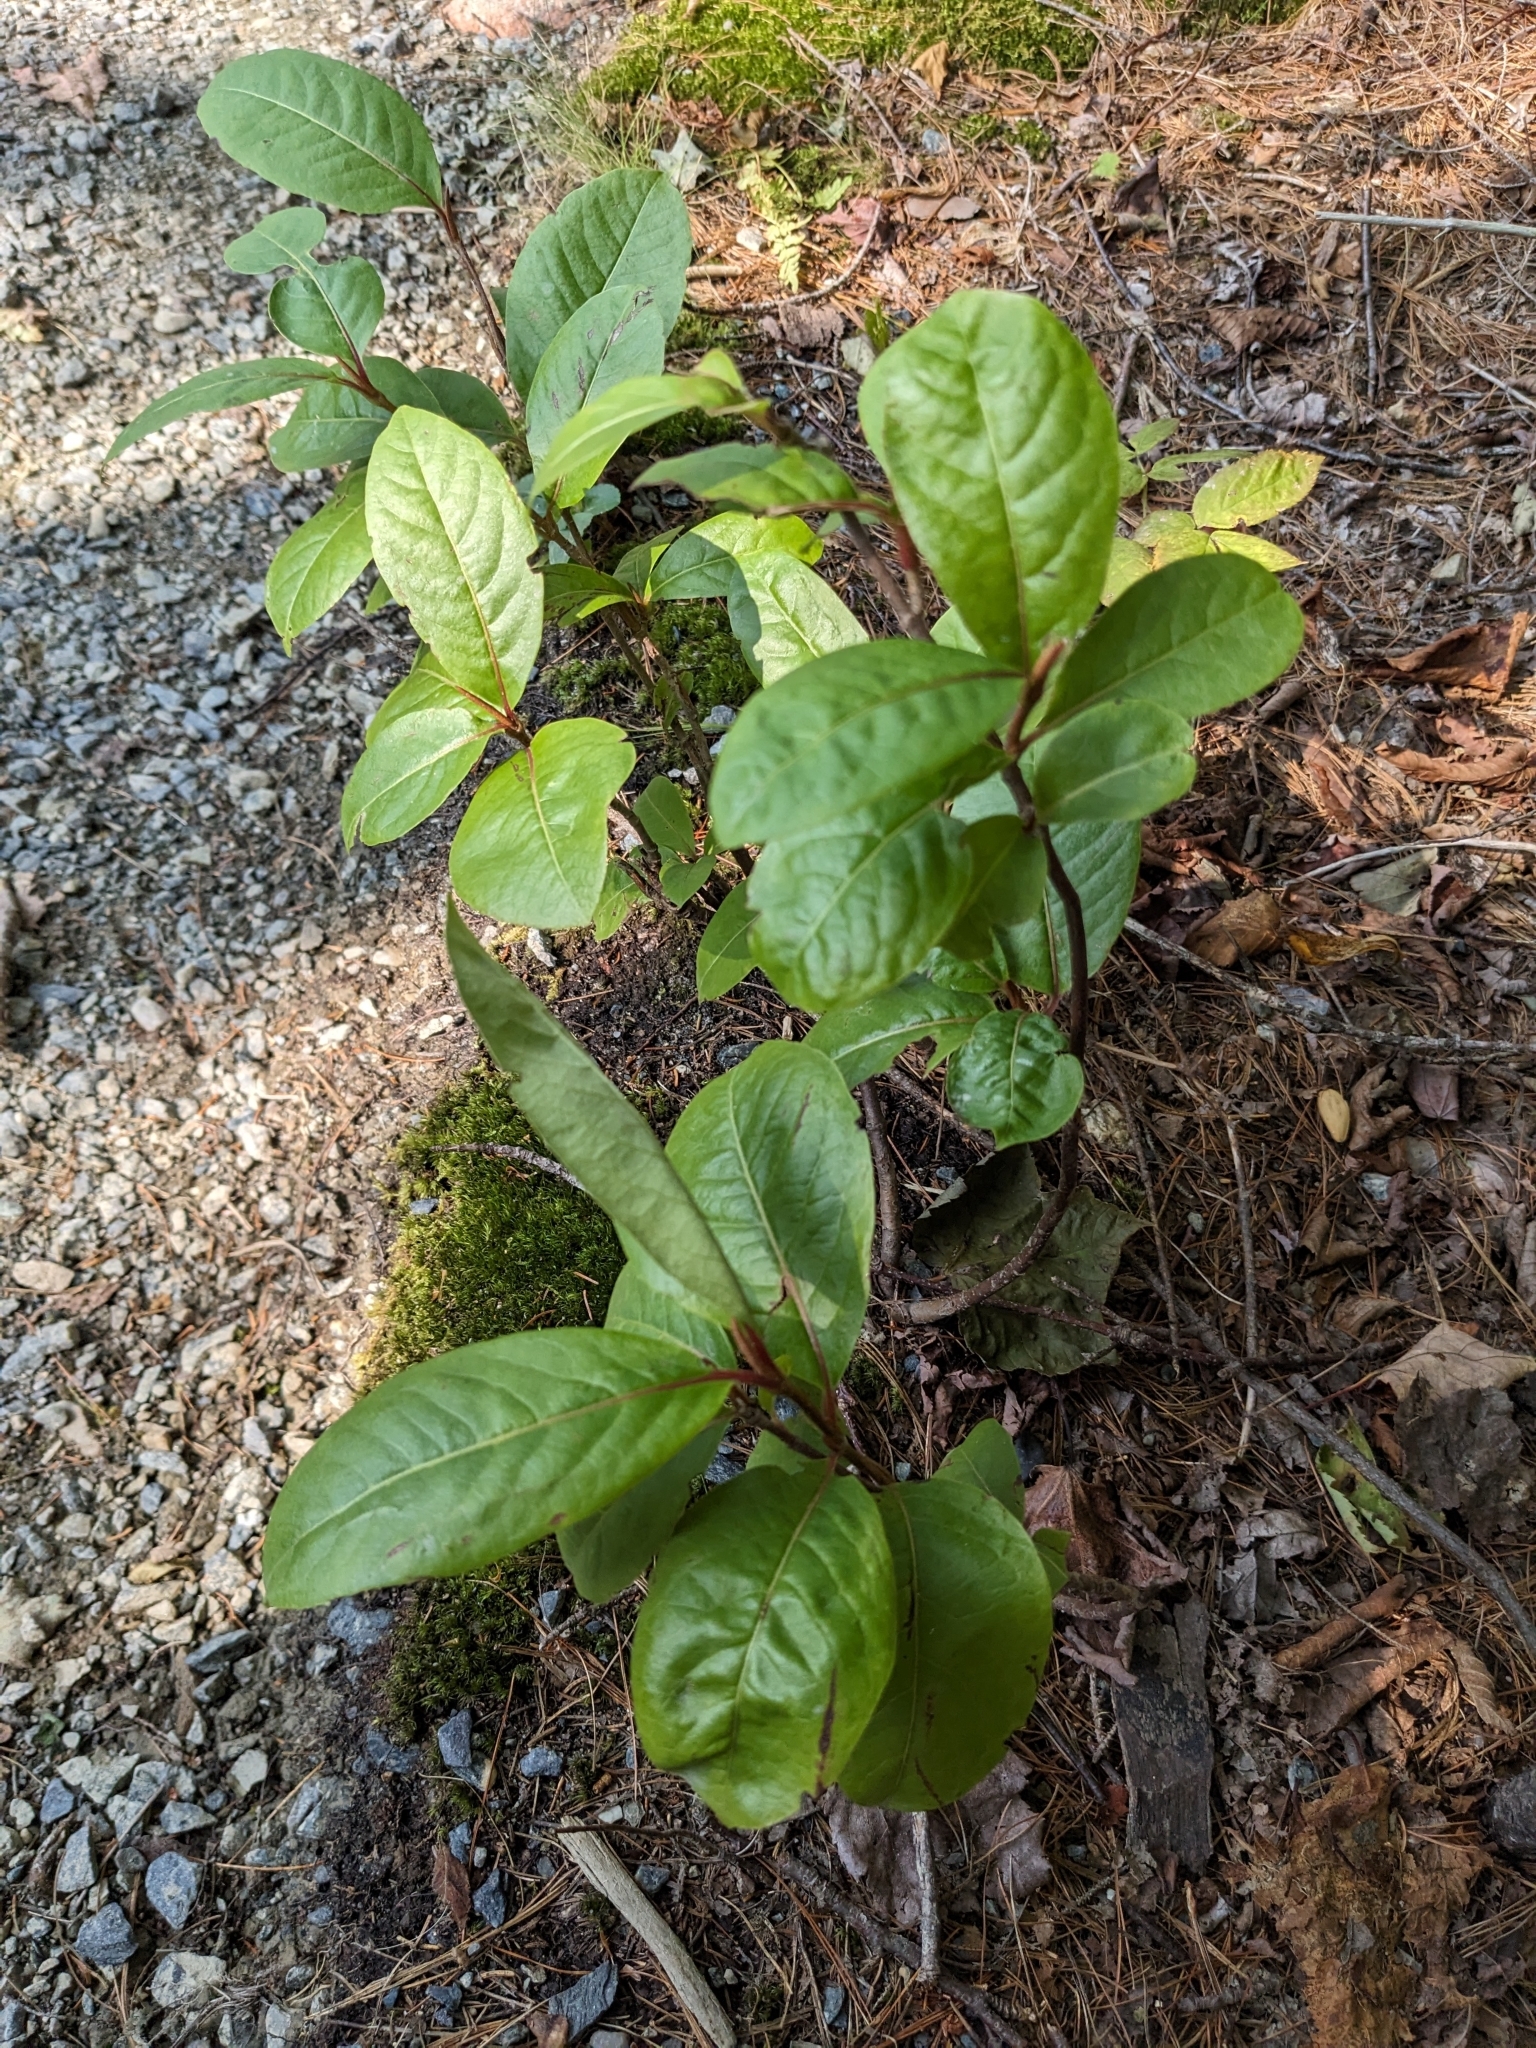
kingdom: Plantae
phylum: Tracheophyta
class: Magnoliopsida
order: Dipsacales
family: Viburnaceae
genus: Viburnum
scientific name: Viburnum cassinoides
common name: Swamp haw
